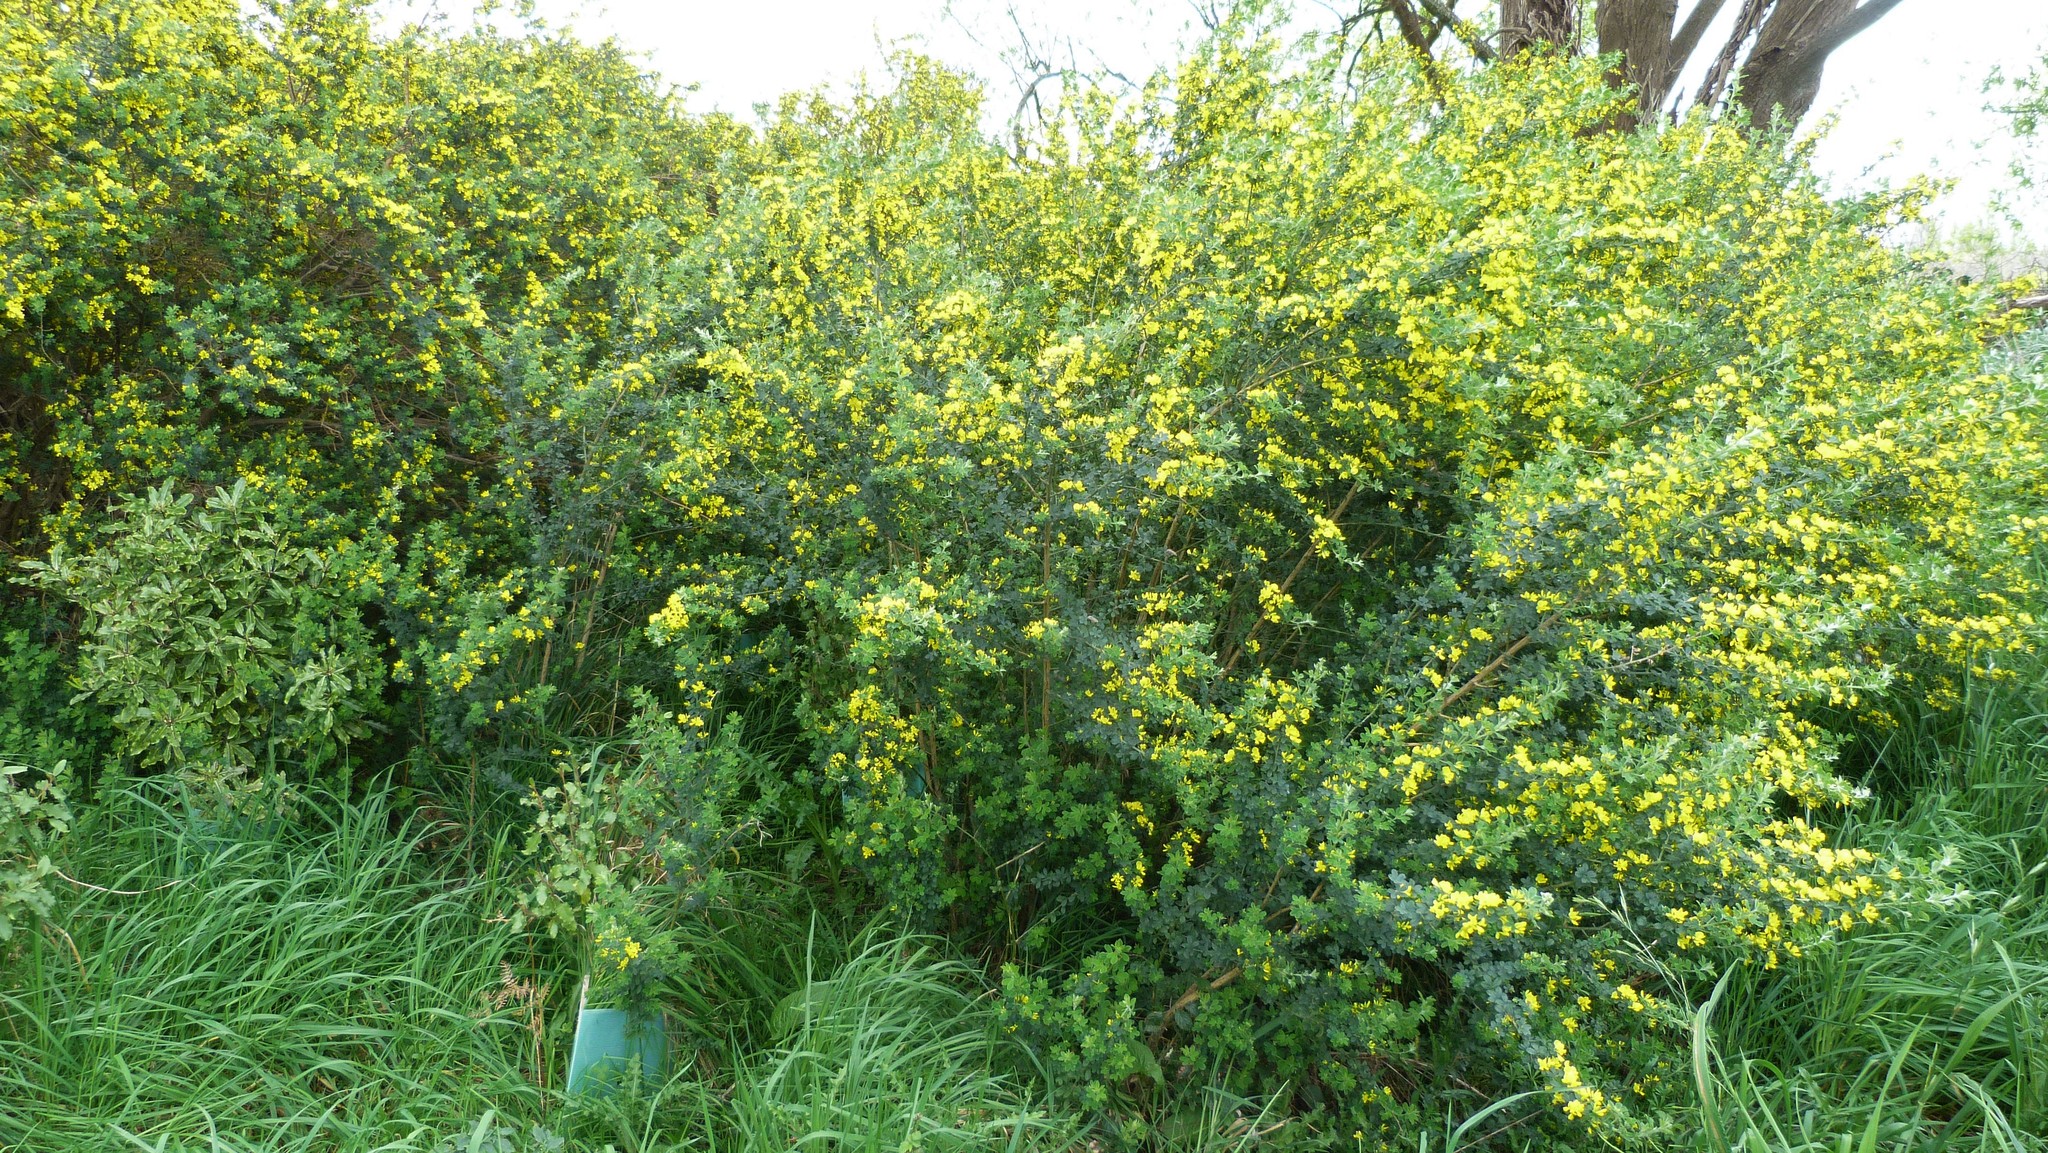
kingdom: Plantae
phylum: Tracheophyta
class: Magnoliopsida
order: Fabales
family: Fabaceae
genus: Genista
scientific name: Genista monspessulana
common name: Montpellier broom
